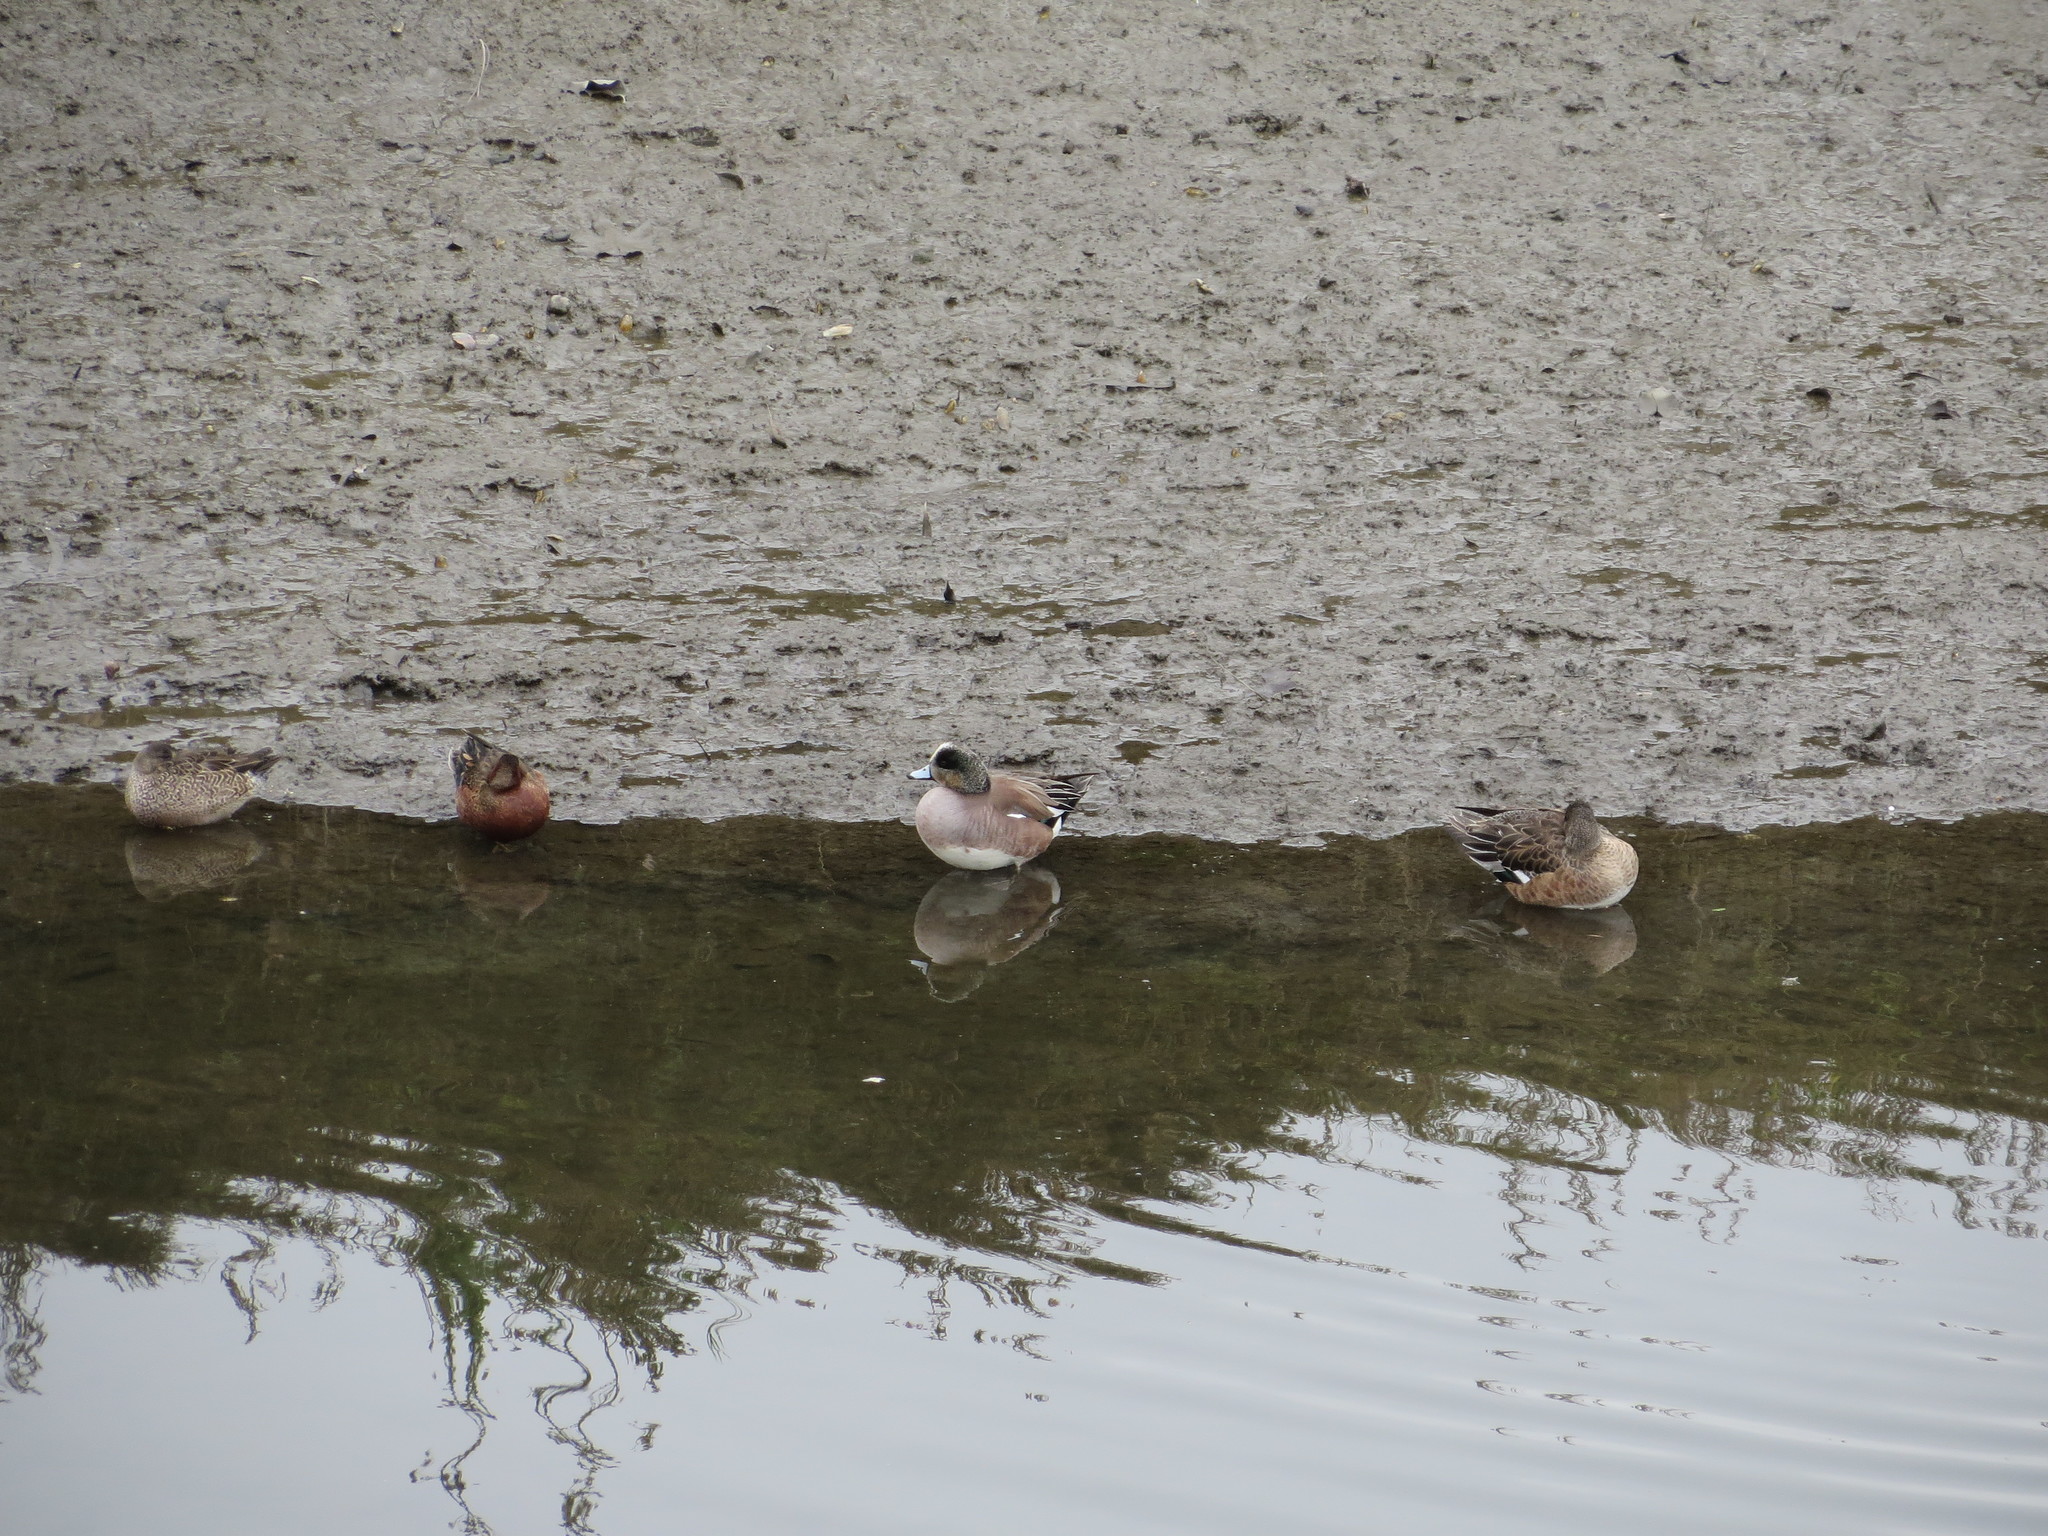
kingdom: Animalia
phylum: Chordata
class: Aves
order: Anseriformes
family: Anatidae
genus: Mareca
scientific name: Mareca americana
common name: American wigeon
